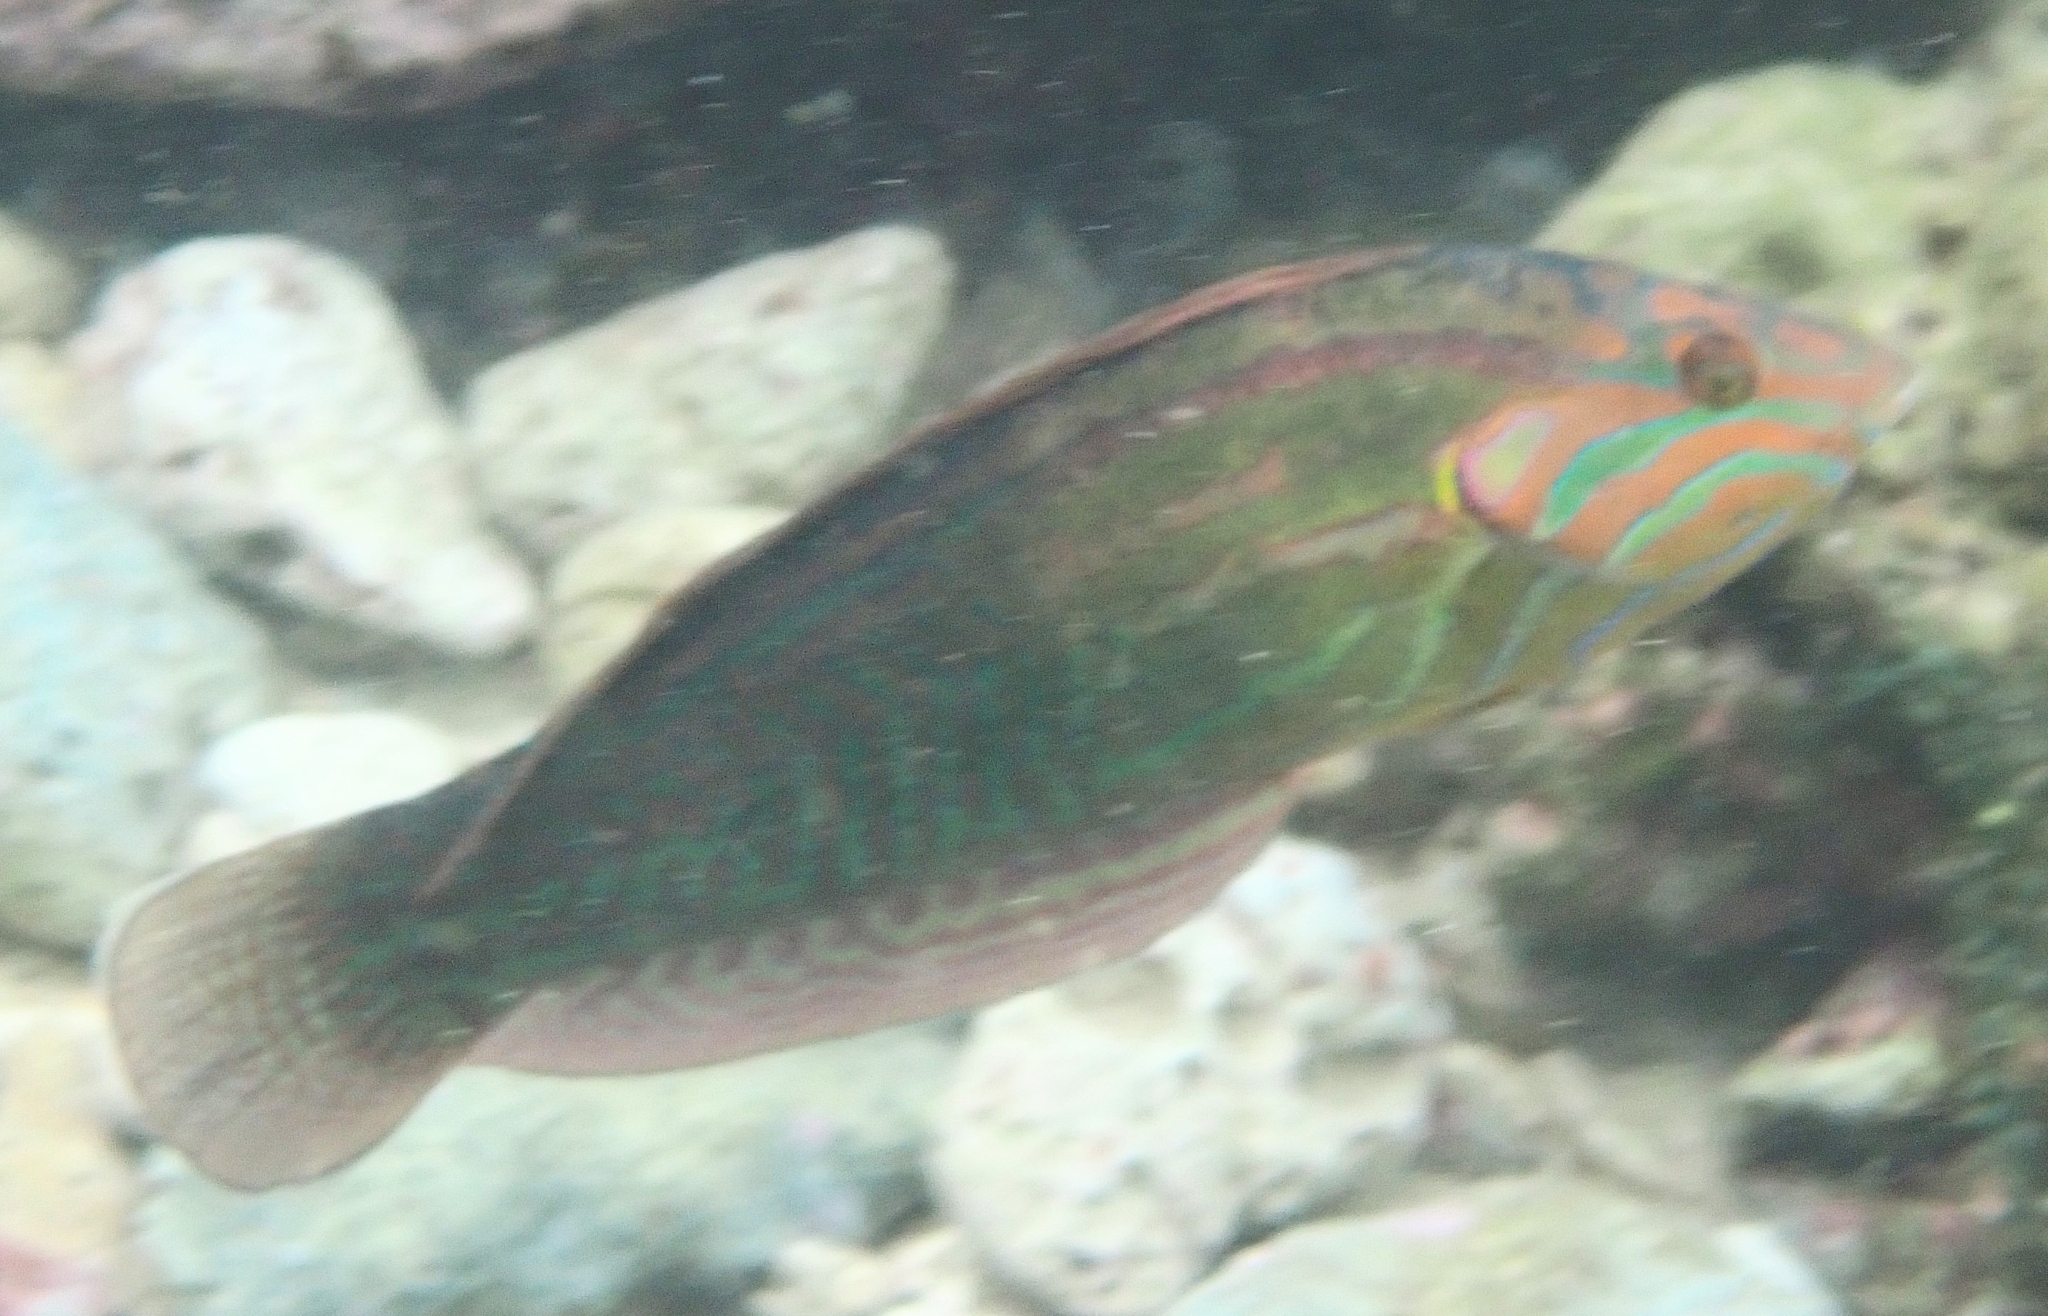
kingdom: Animalia
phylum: Chordata
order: Perciformes
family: Labridae
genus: Coris
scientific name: Coris venusta
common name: Elegant coris
